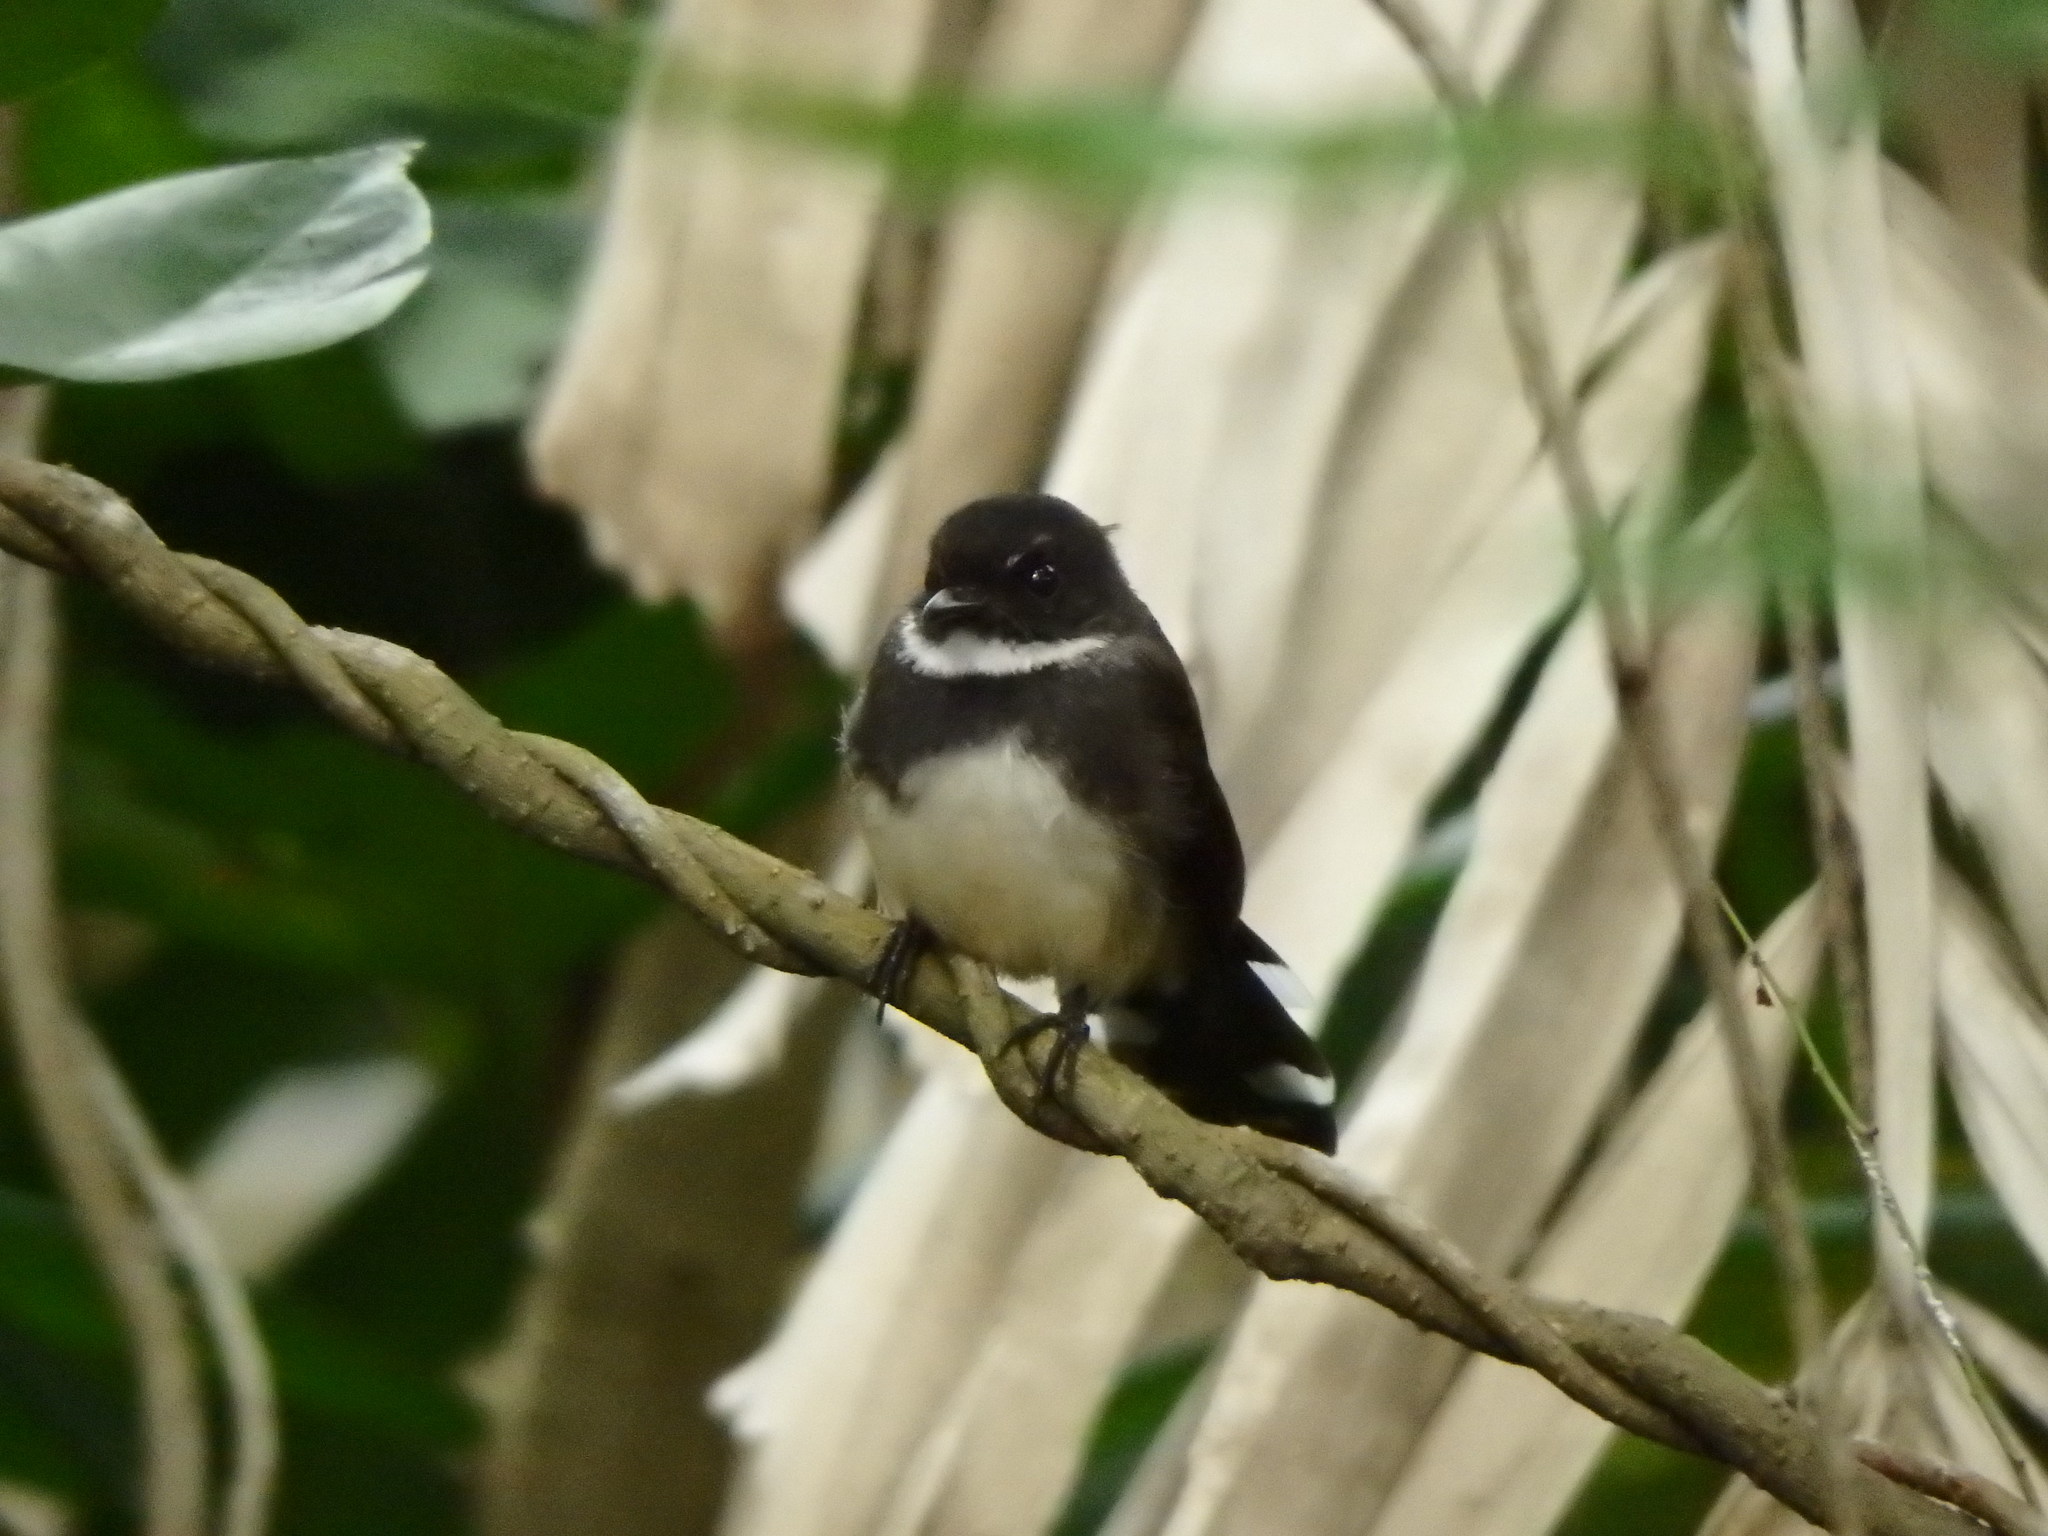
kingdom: Animalia
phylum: Chordata
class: Aves
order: Passeriformes
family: Rhipiduridae
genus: Rhipidura
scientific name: Rhipidura javanica
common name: Pied fantail
